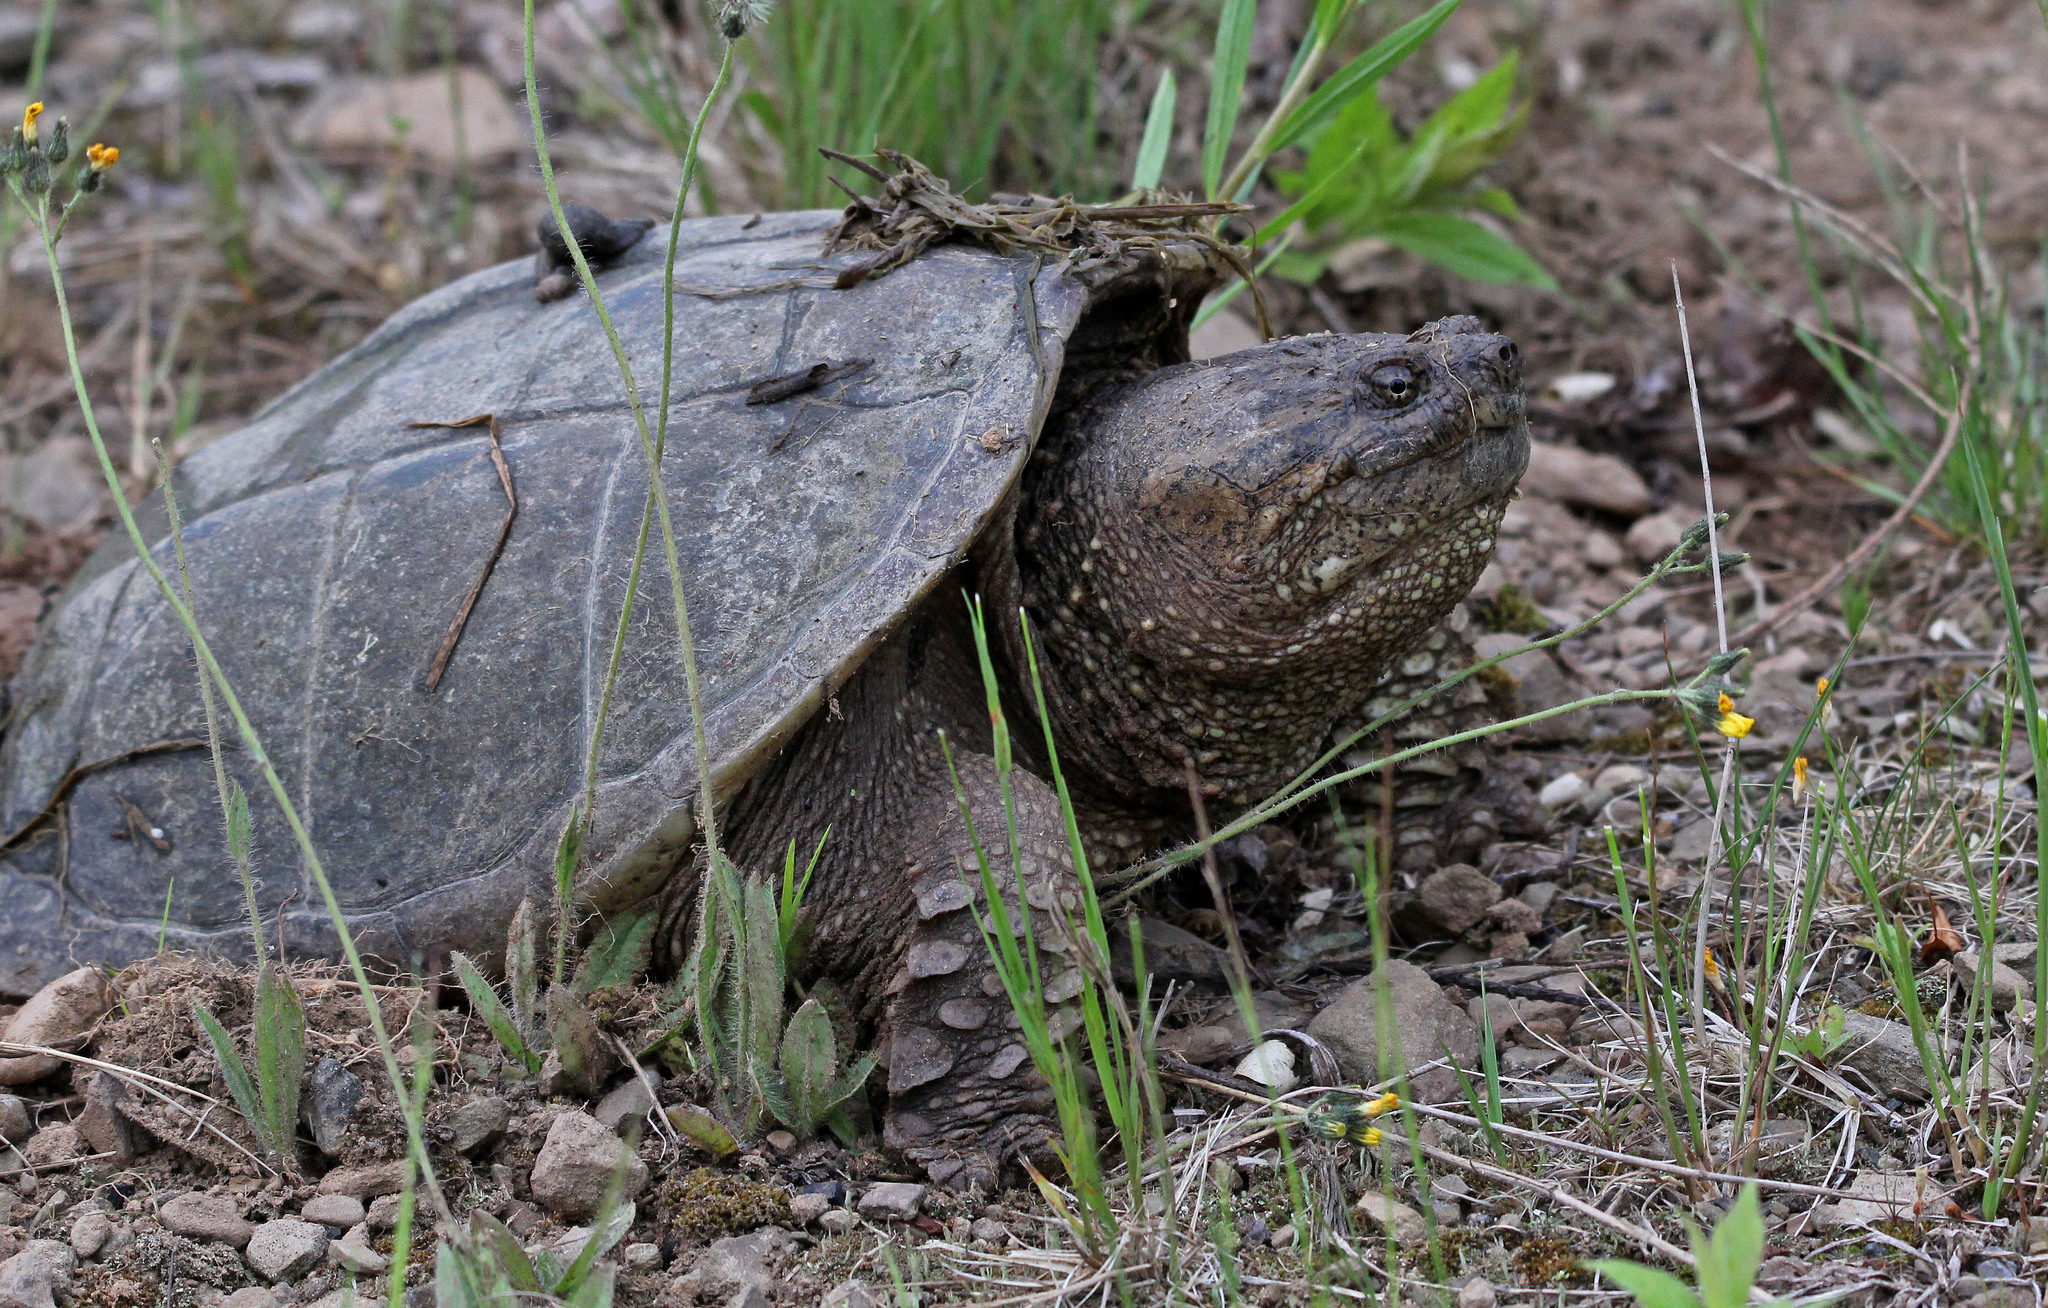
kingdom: Animalia
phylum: Chordata
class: Testudines
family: Chelydridae
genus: Chelydra
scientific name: Chelydra serpentina
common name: Common snapping turtle
